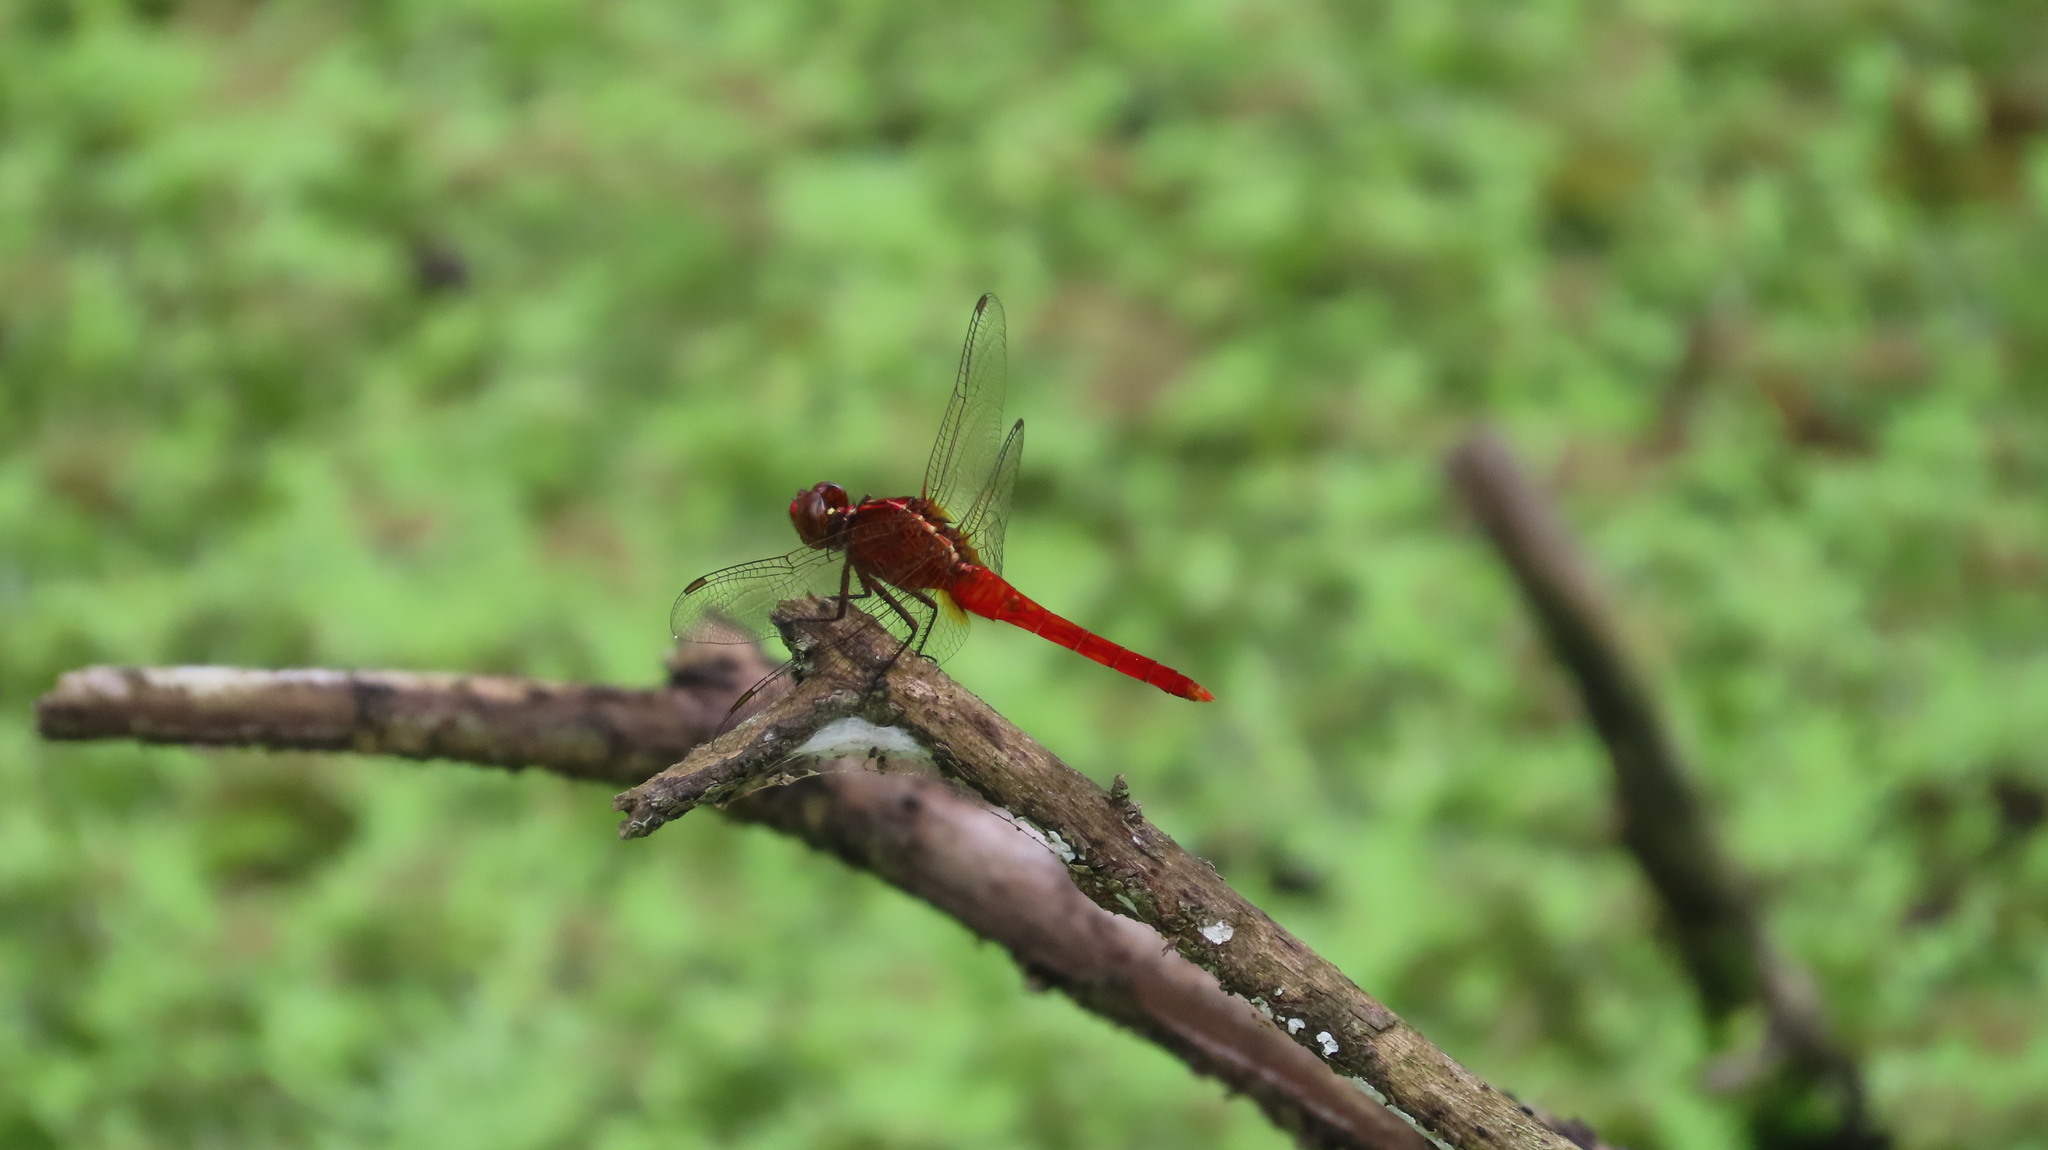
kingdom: Animalia
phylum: Arthropoda
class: Insecta
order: Odonata
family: Libellulidae
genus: Rhodothemis
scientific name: Rhodothemis rufa
